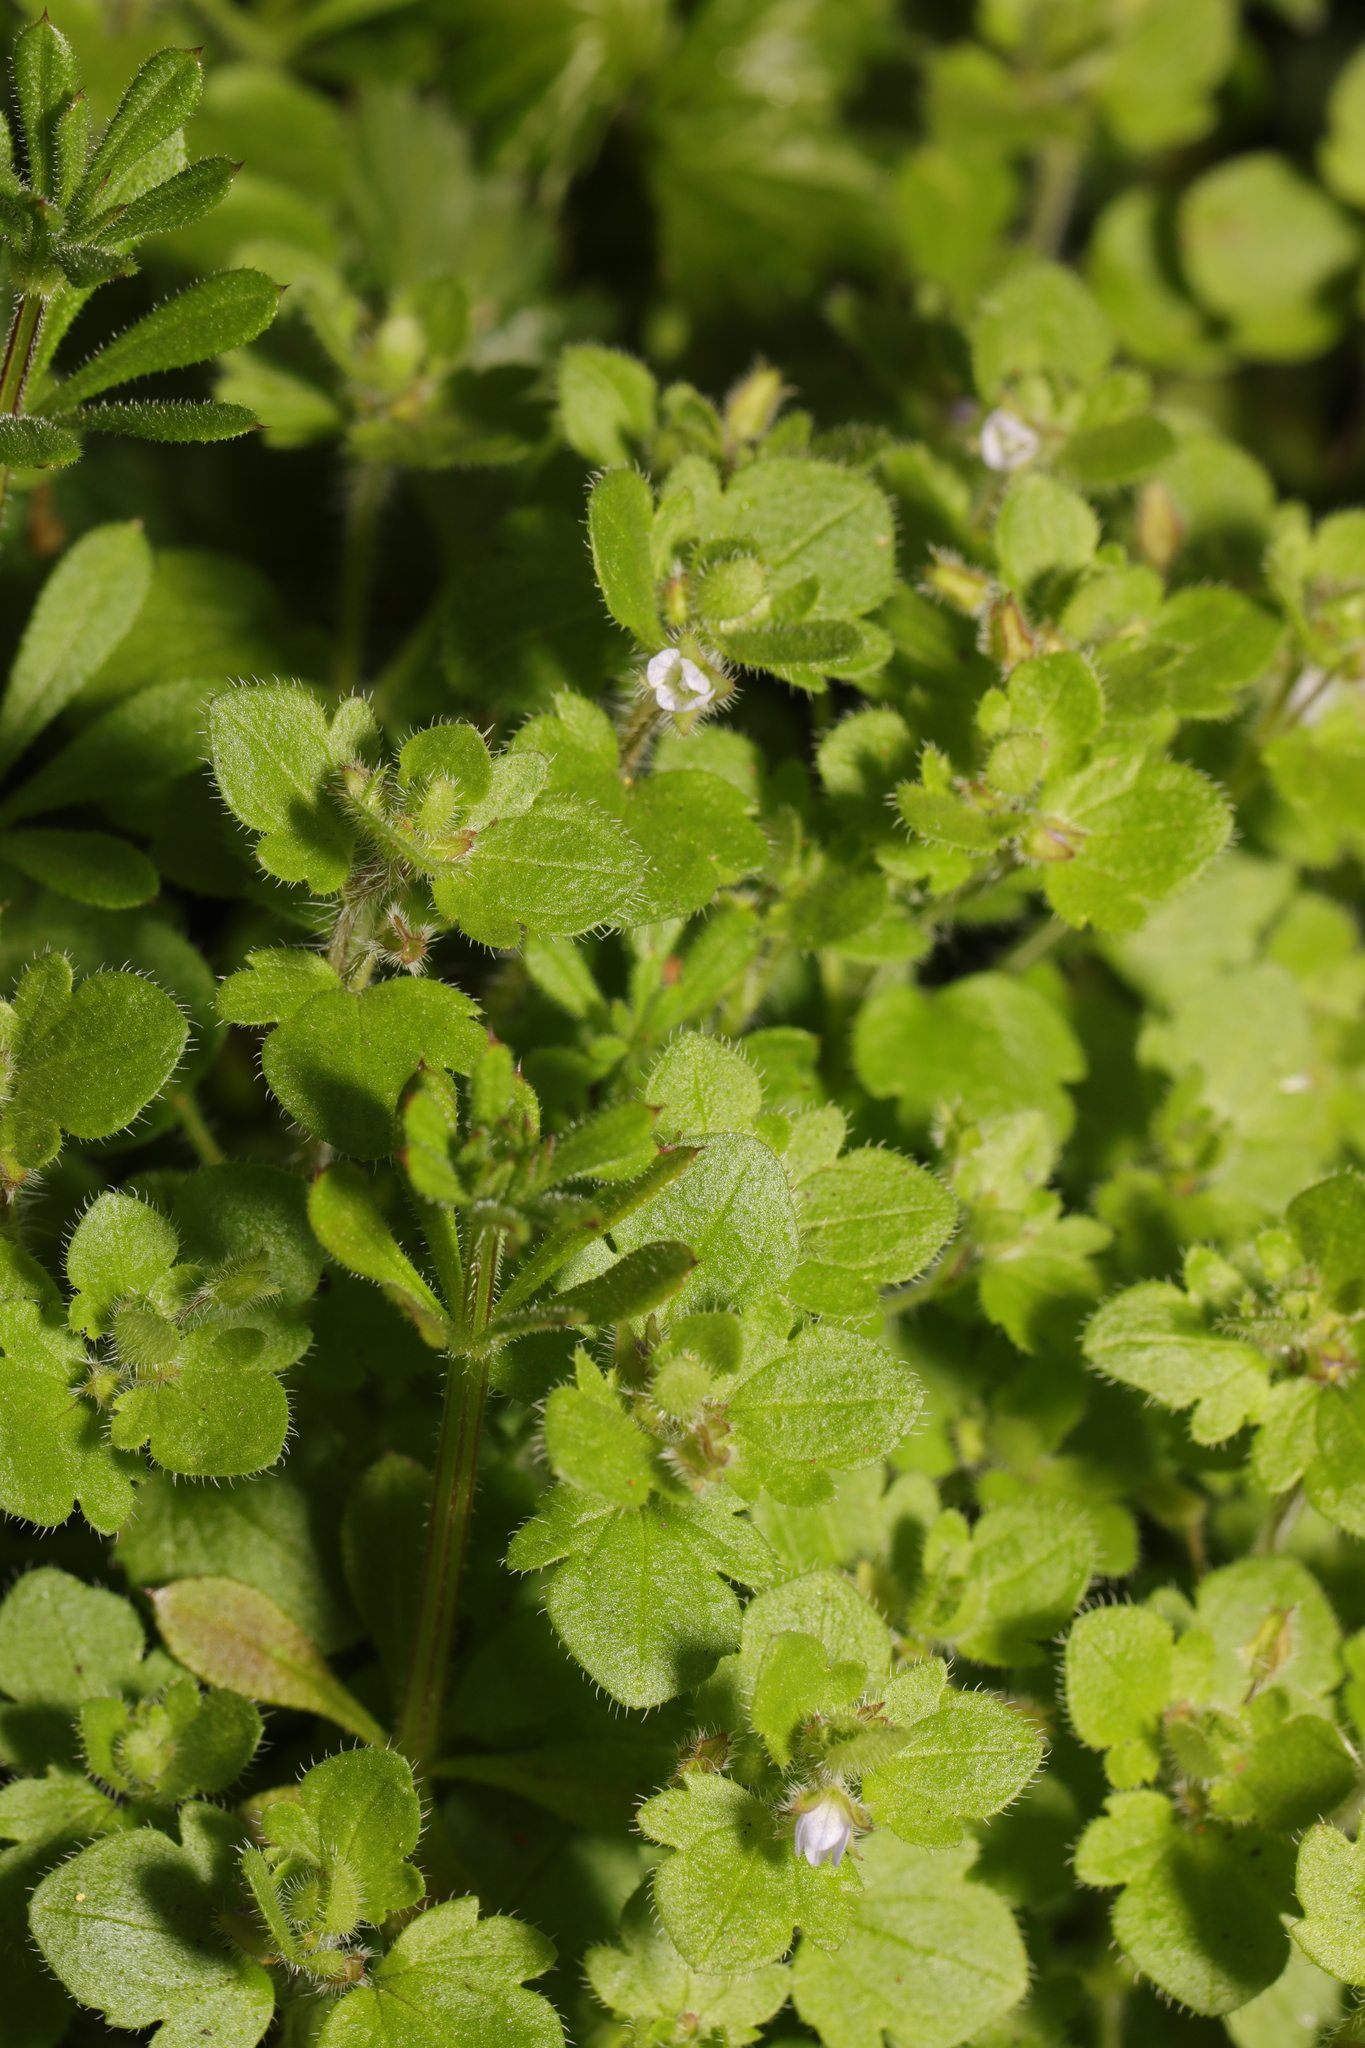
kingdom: Plantae
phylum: Tracheophyta
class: Magnoliopsida
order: Lamiales
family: Plantaginaceae
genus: Veronica
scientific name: Veronica sublobata
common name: False ivy-leaved speedwell
